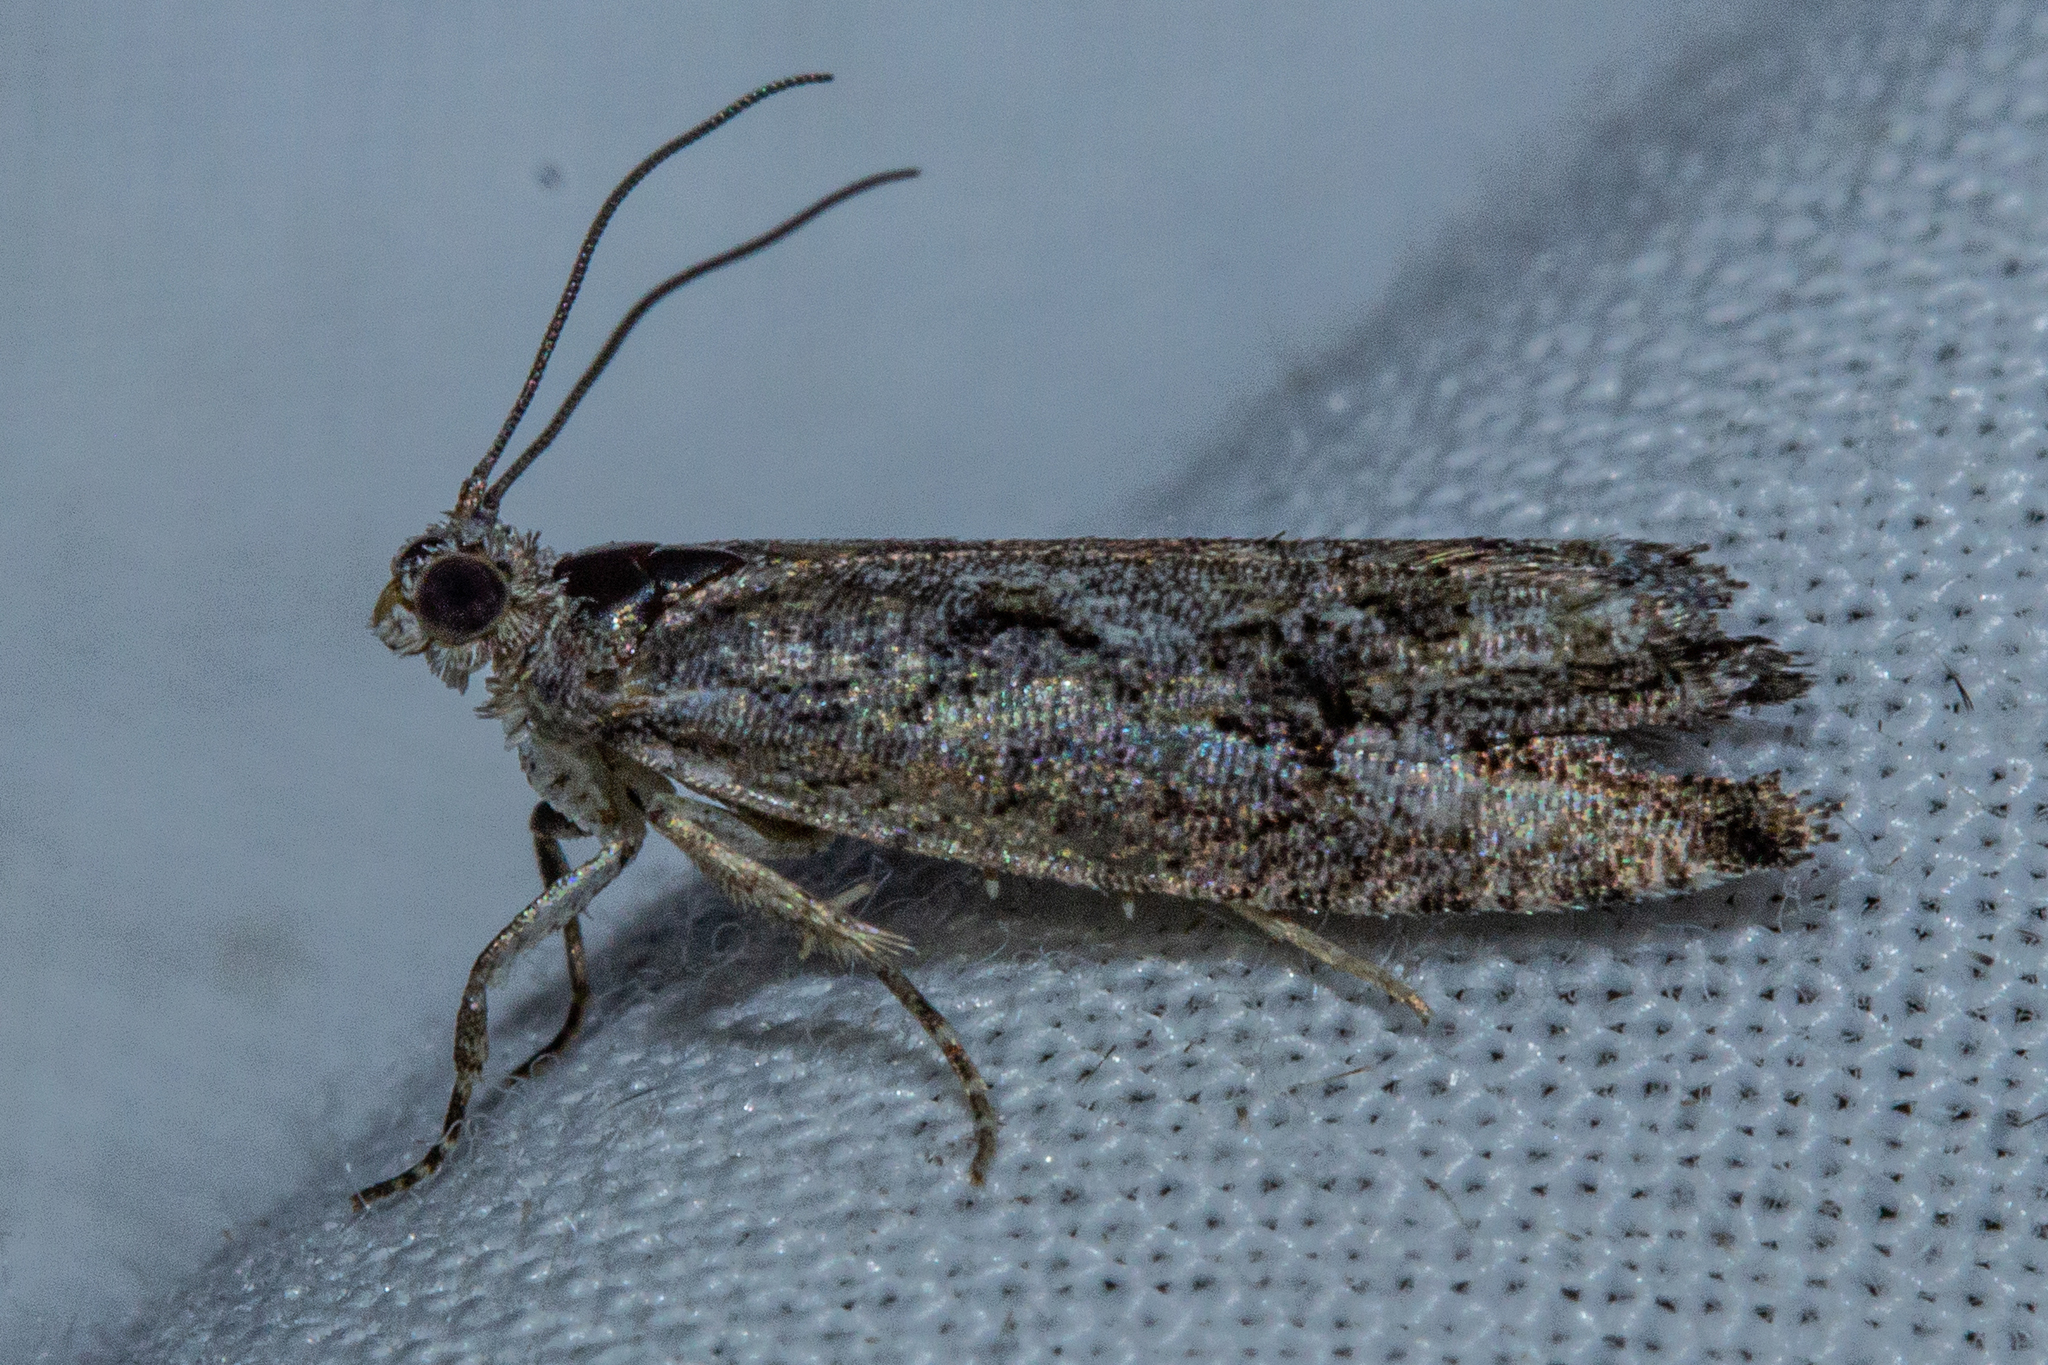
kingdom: Animalia
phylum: Arthropoda
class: Insecta
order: Lepidoptera
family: Tortricidae
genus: Strepsicrates
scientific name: Strepsicrates ejectana
